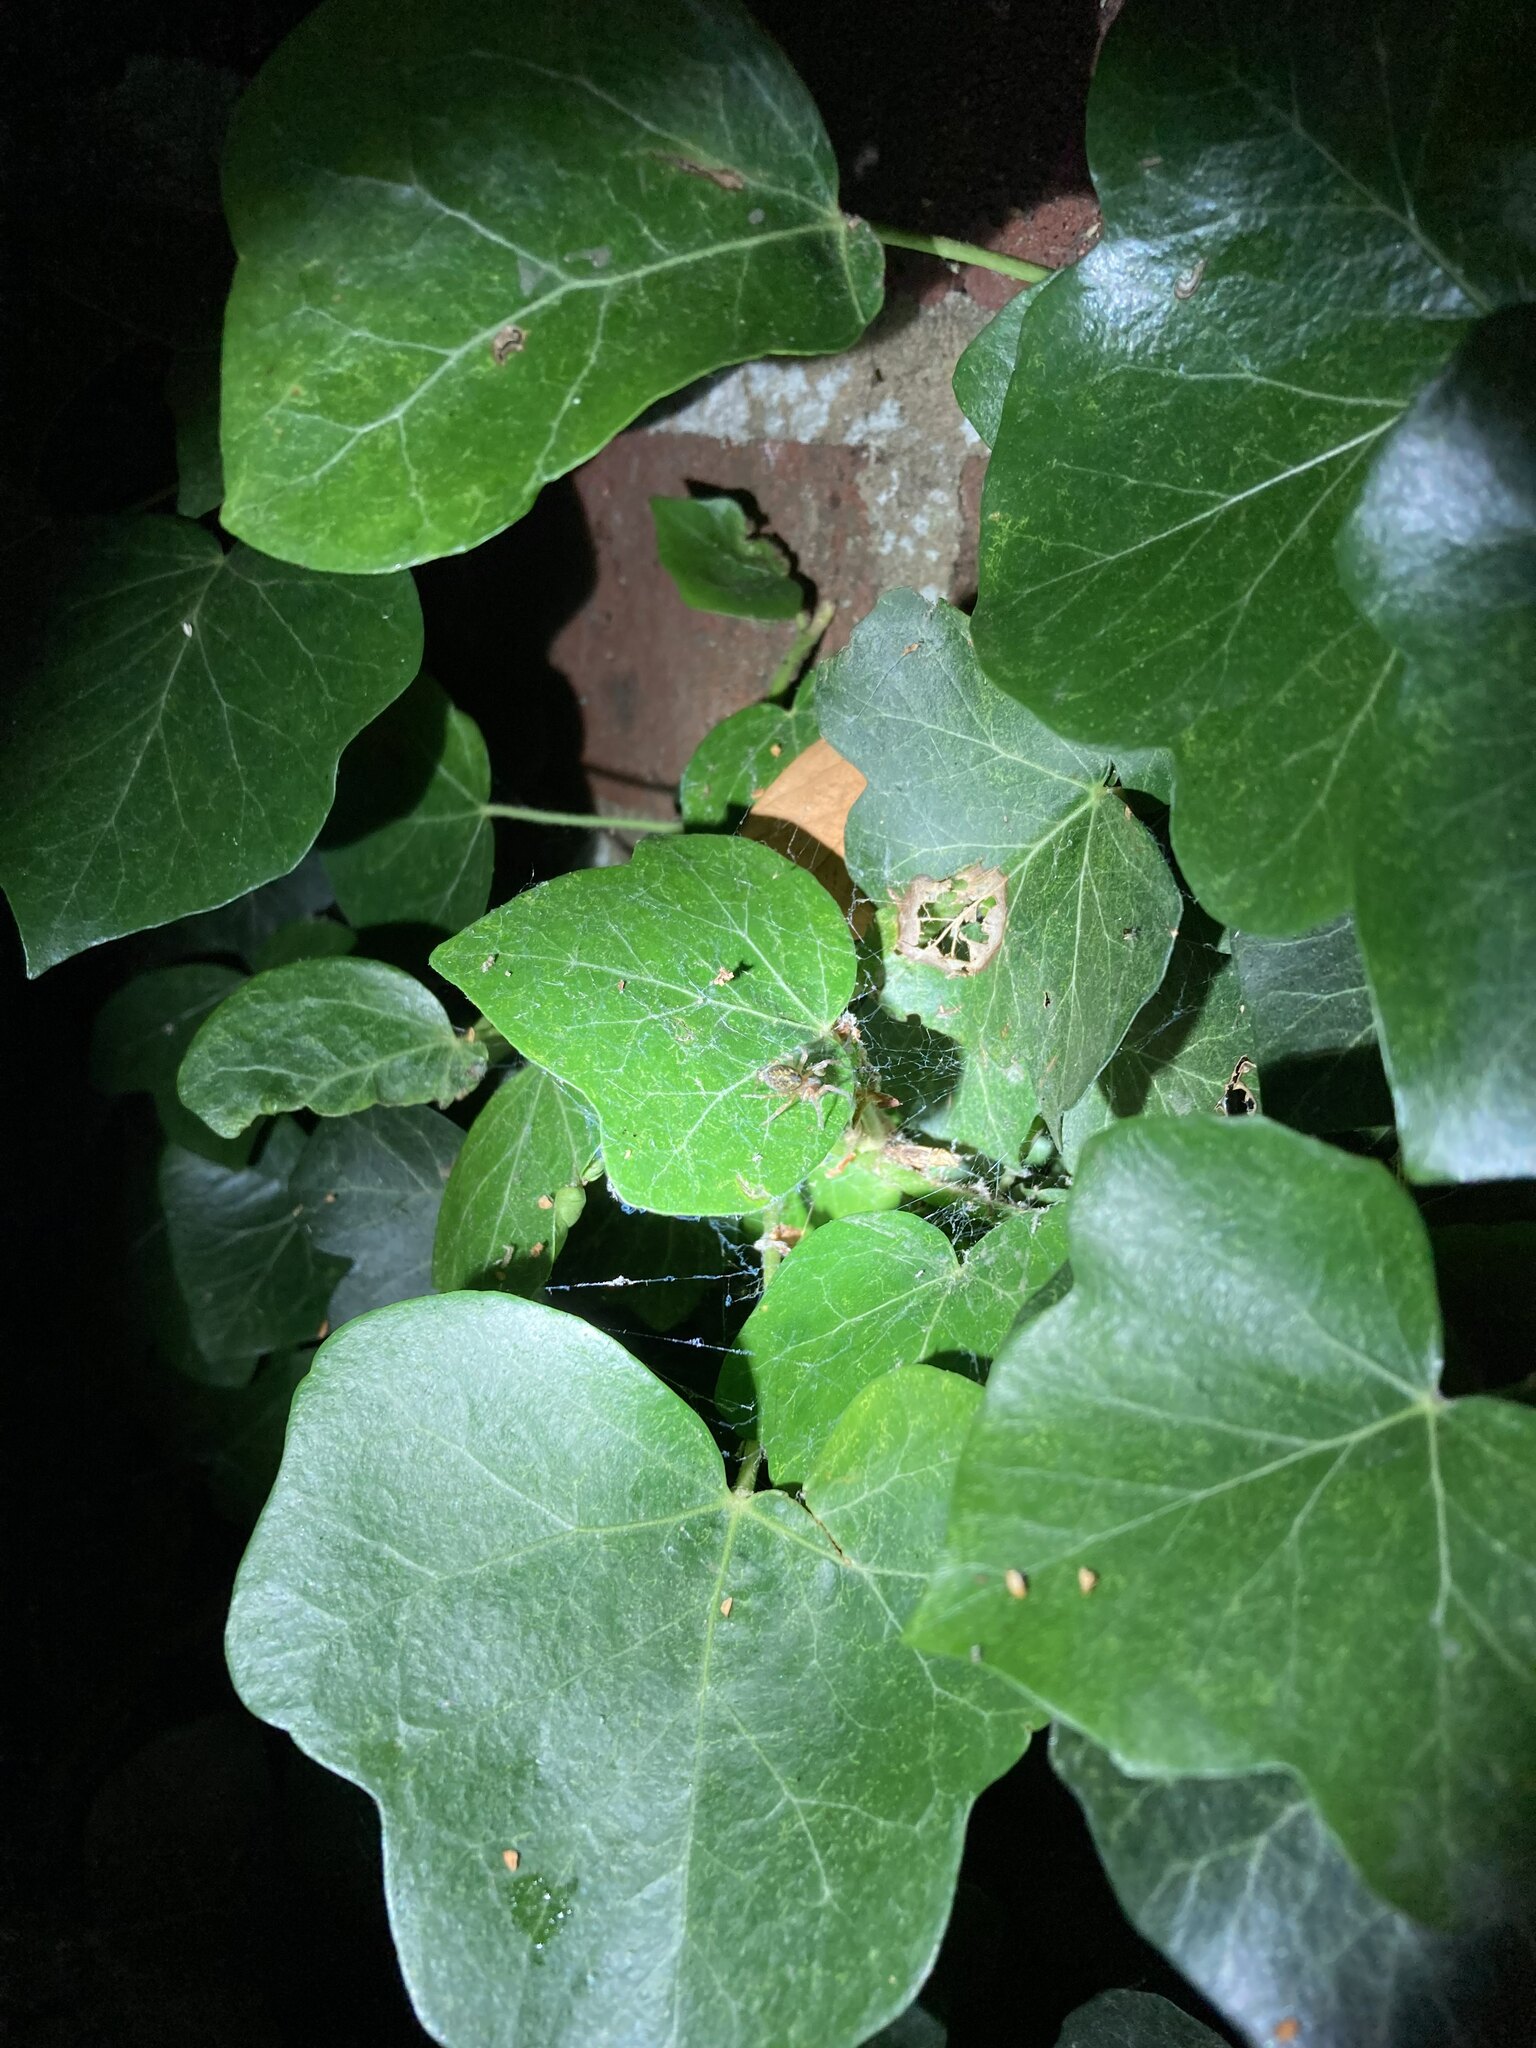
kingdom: Animalia
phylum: Arthropoda
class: Arachnida
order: Araneae
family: Amaurobiidae
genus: Amaurobius
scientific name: Amaurobius
